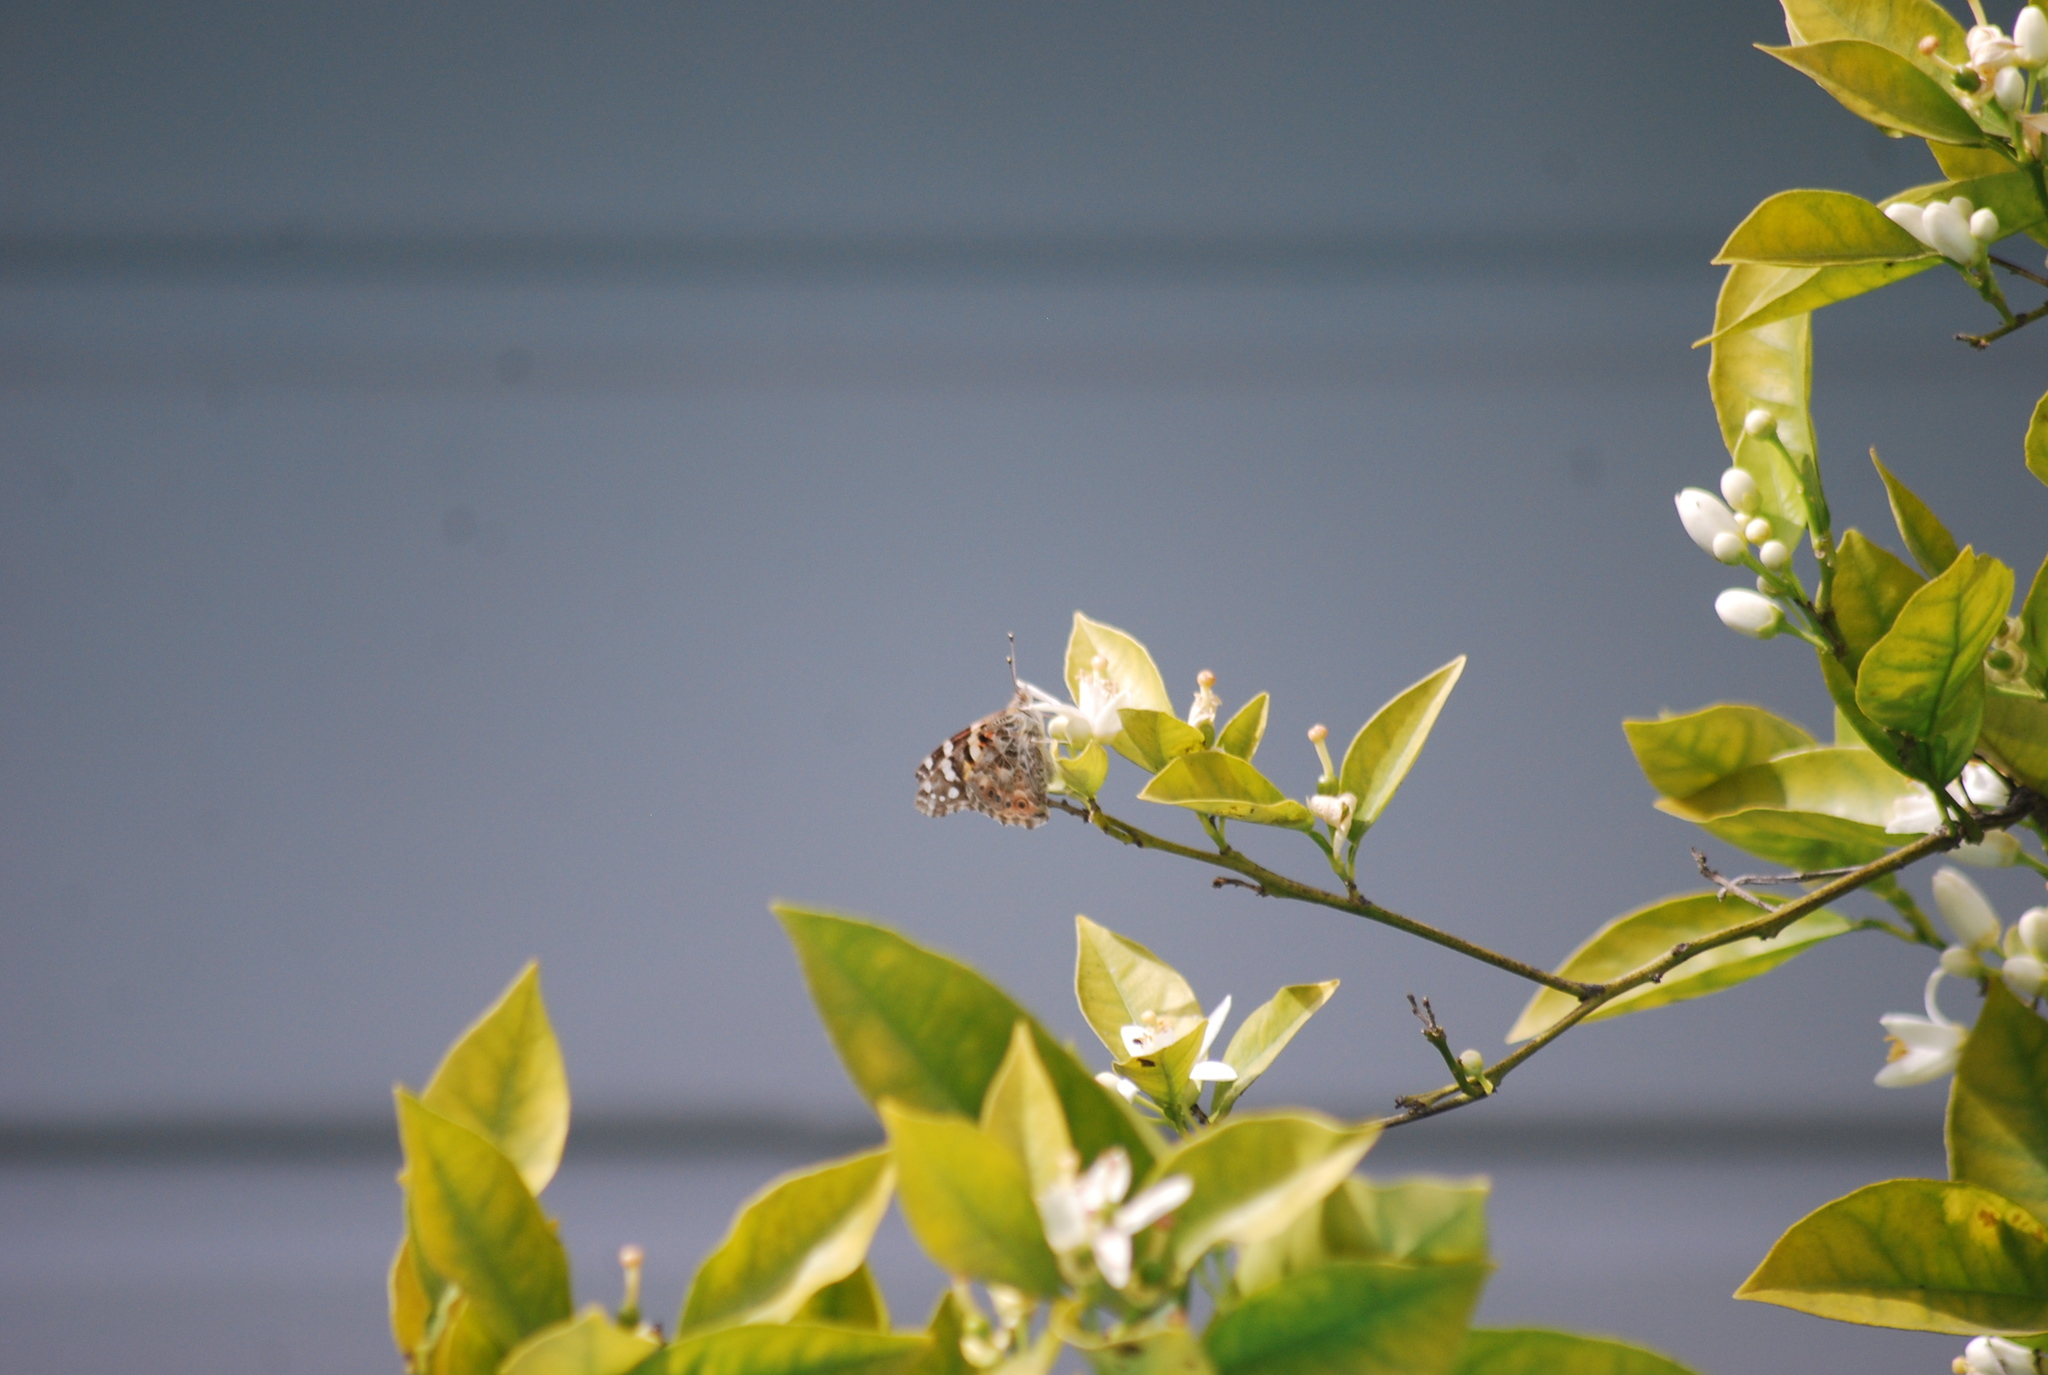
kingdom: Animalia
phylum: Arthropoda
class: Insecta
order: Lepidoptera
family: Nymphalidae
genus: Vanessa
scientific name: Vanessa cardui
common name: Painted lady
